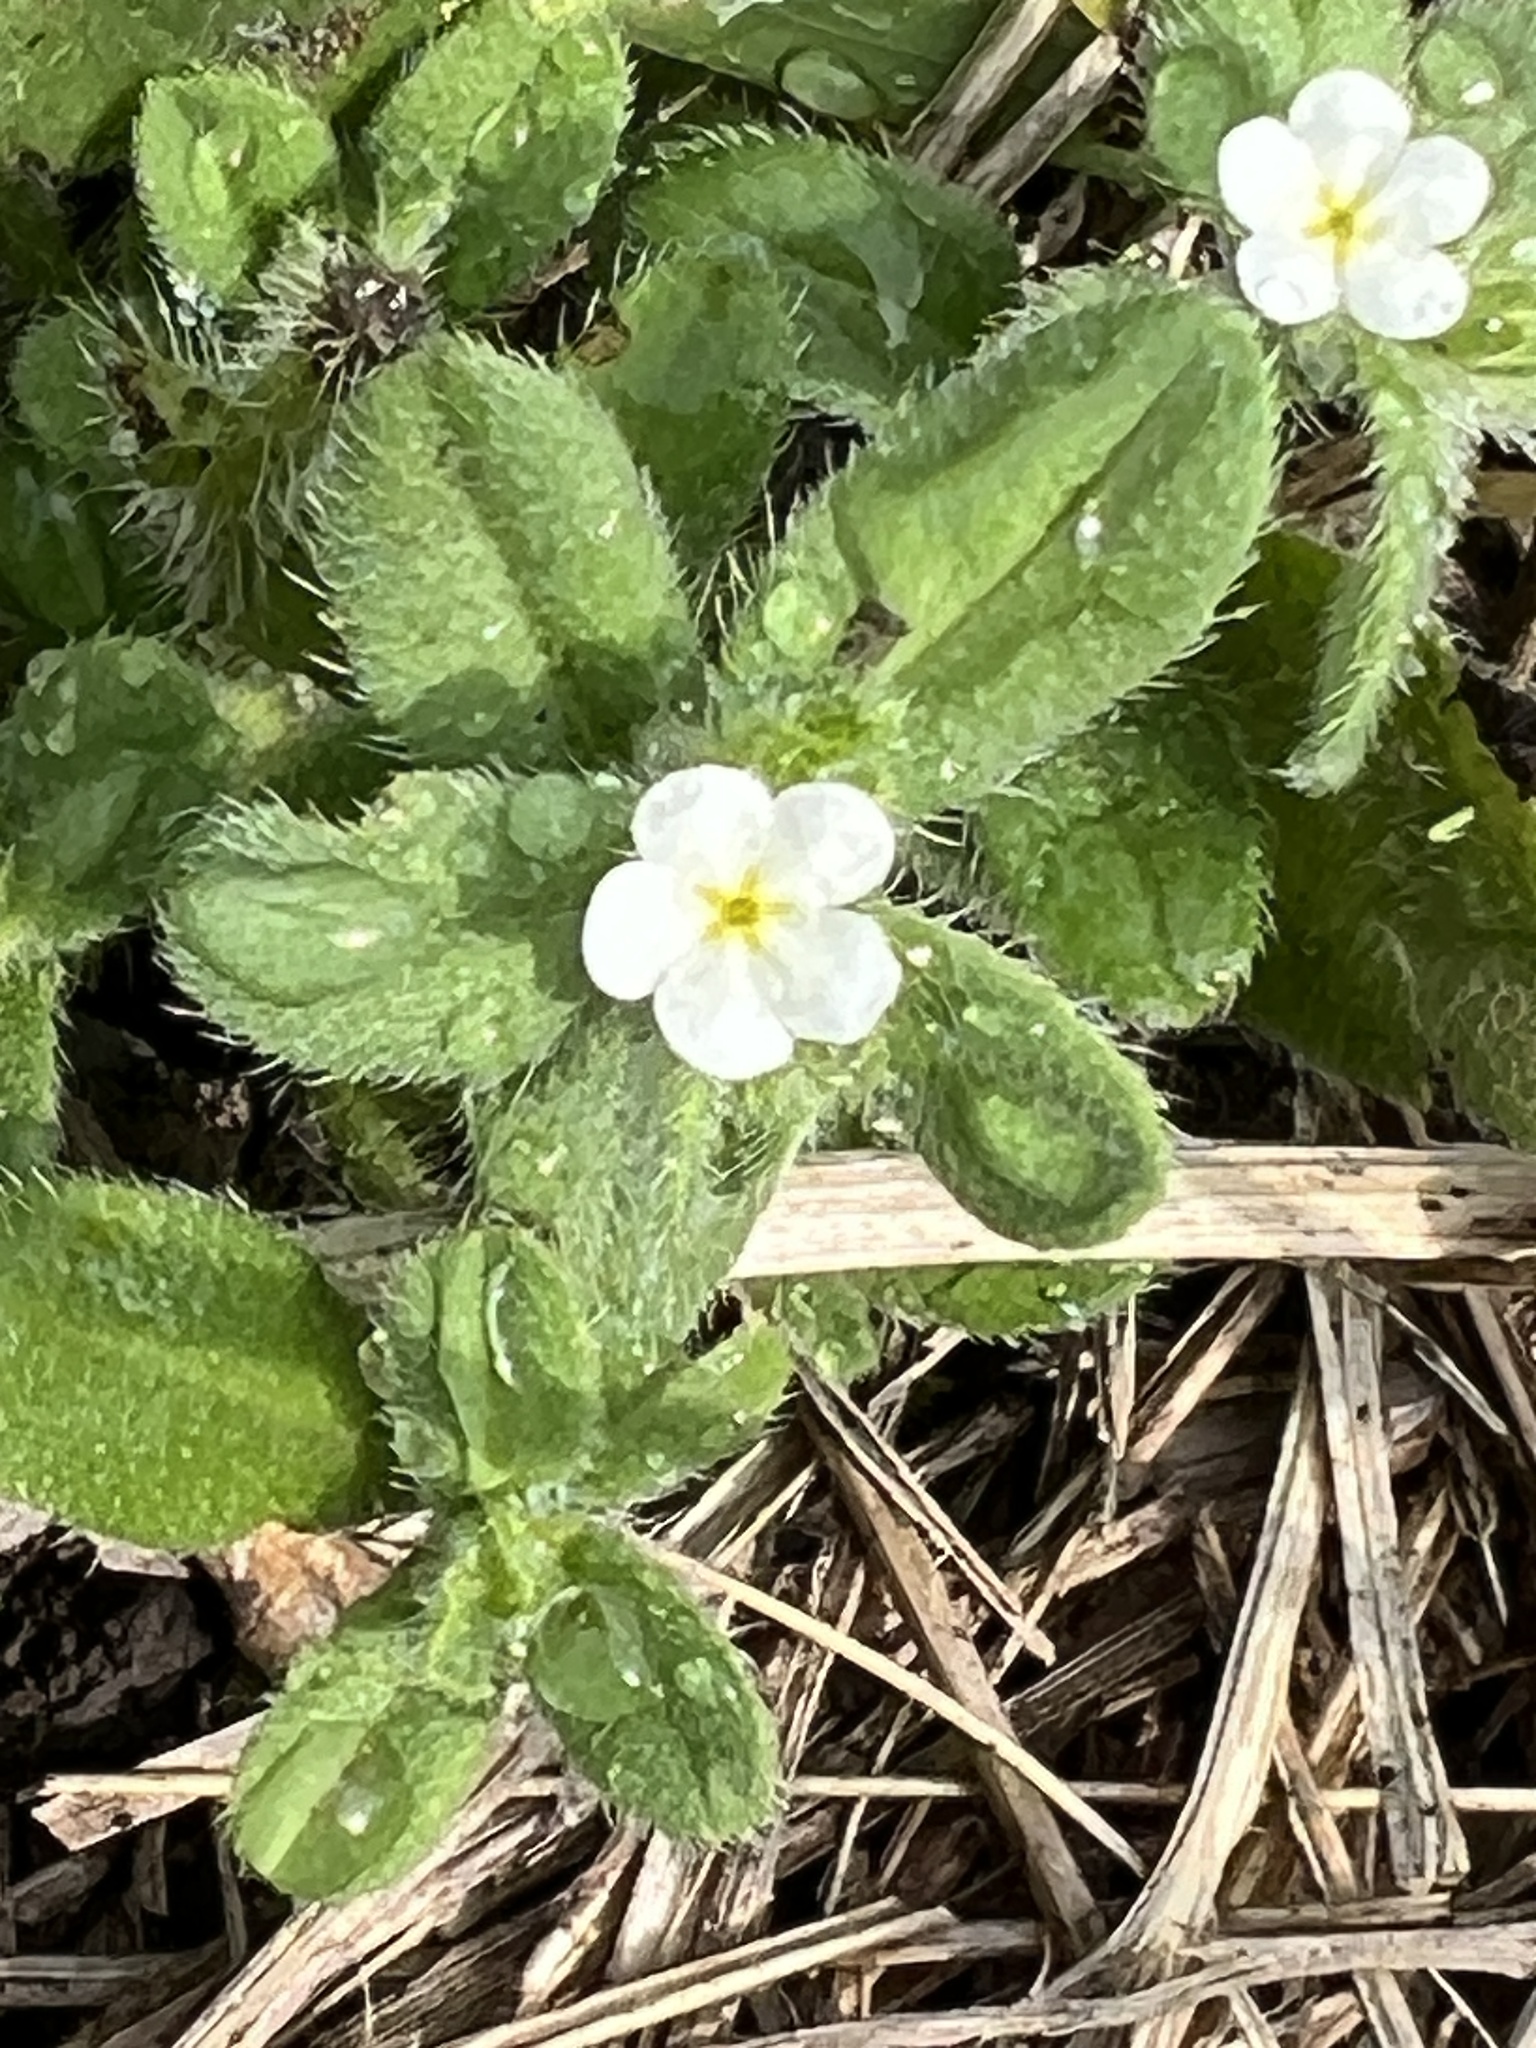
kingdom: Plantae
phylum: Tracheophyta
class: Magnoliopsida
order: Boraginales
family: Boraginaceae
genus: Lithospermum
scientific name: Lithospermum matamorense
